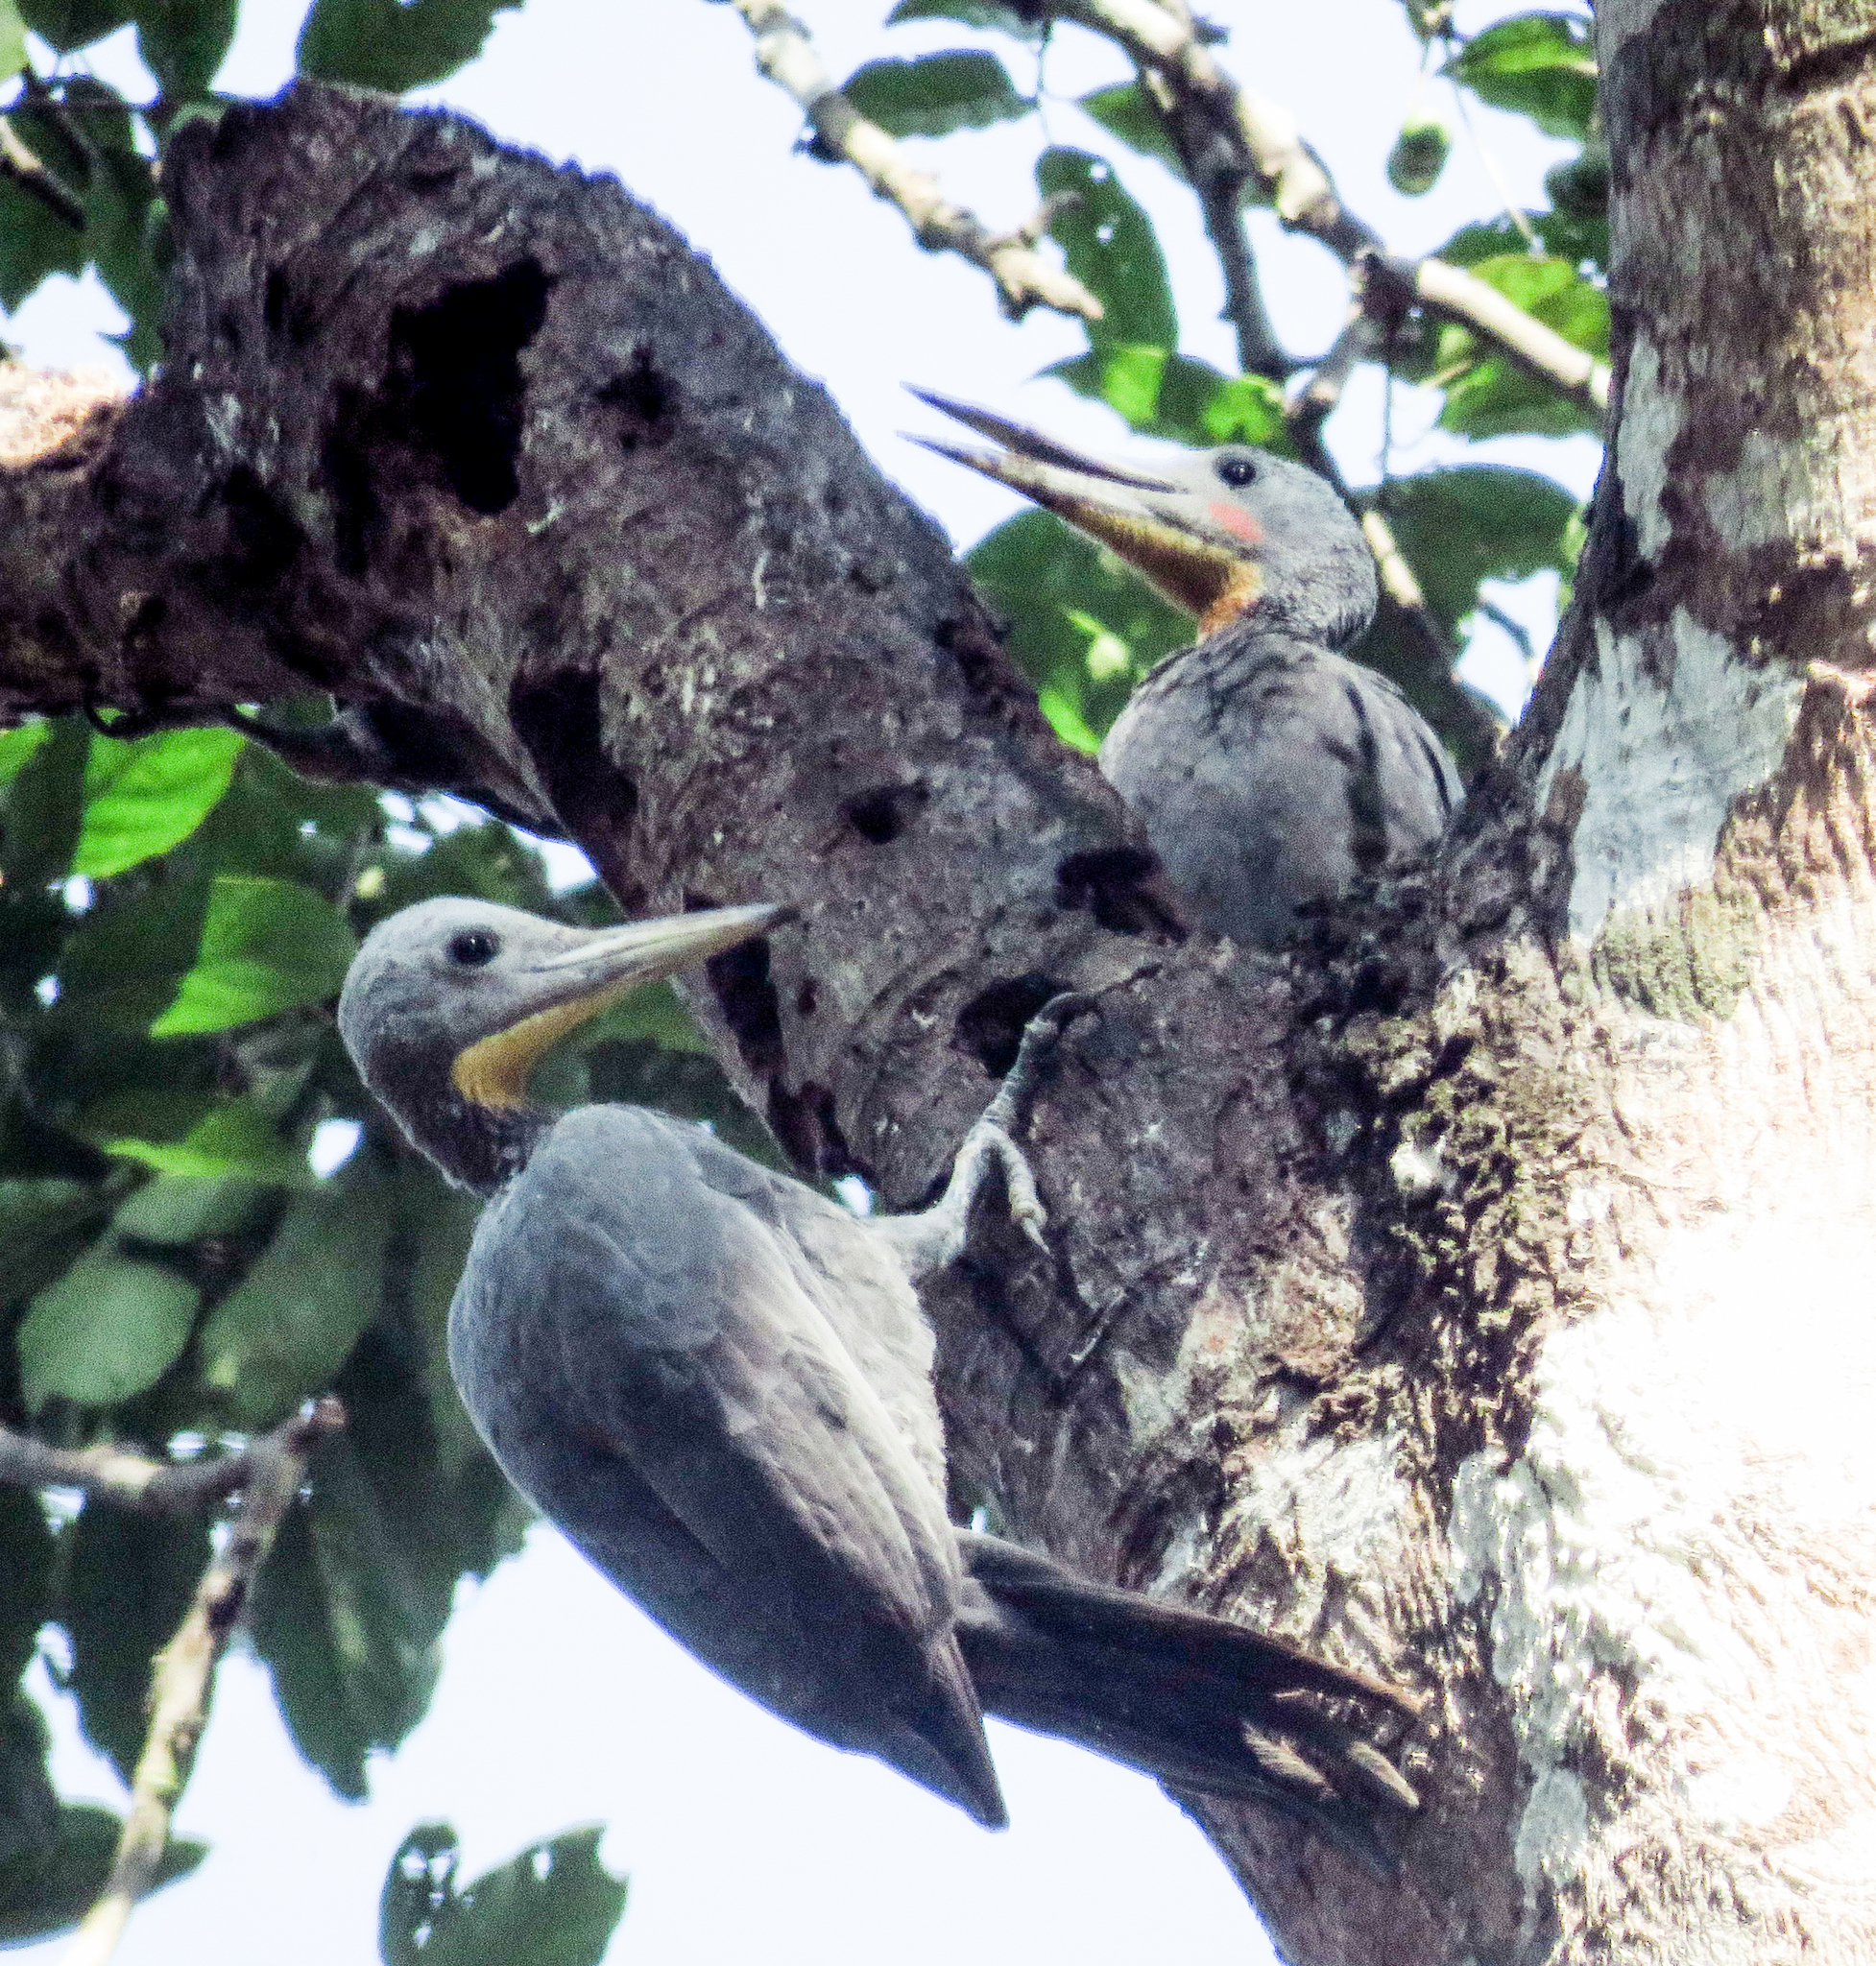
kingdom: Animalia
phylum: Chordata
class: Aves
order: Piciformes
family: Picidae
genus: Mulleripicus
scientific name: Mulleripicus pulverulentus
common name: Great slaty woodpecker
